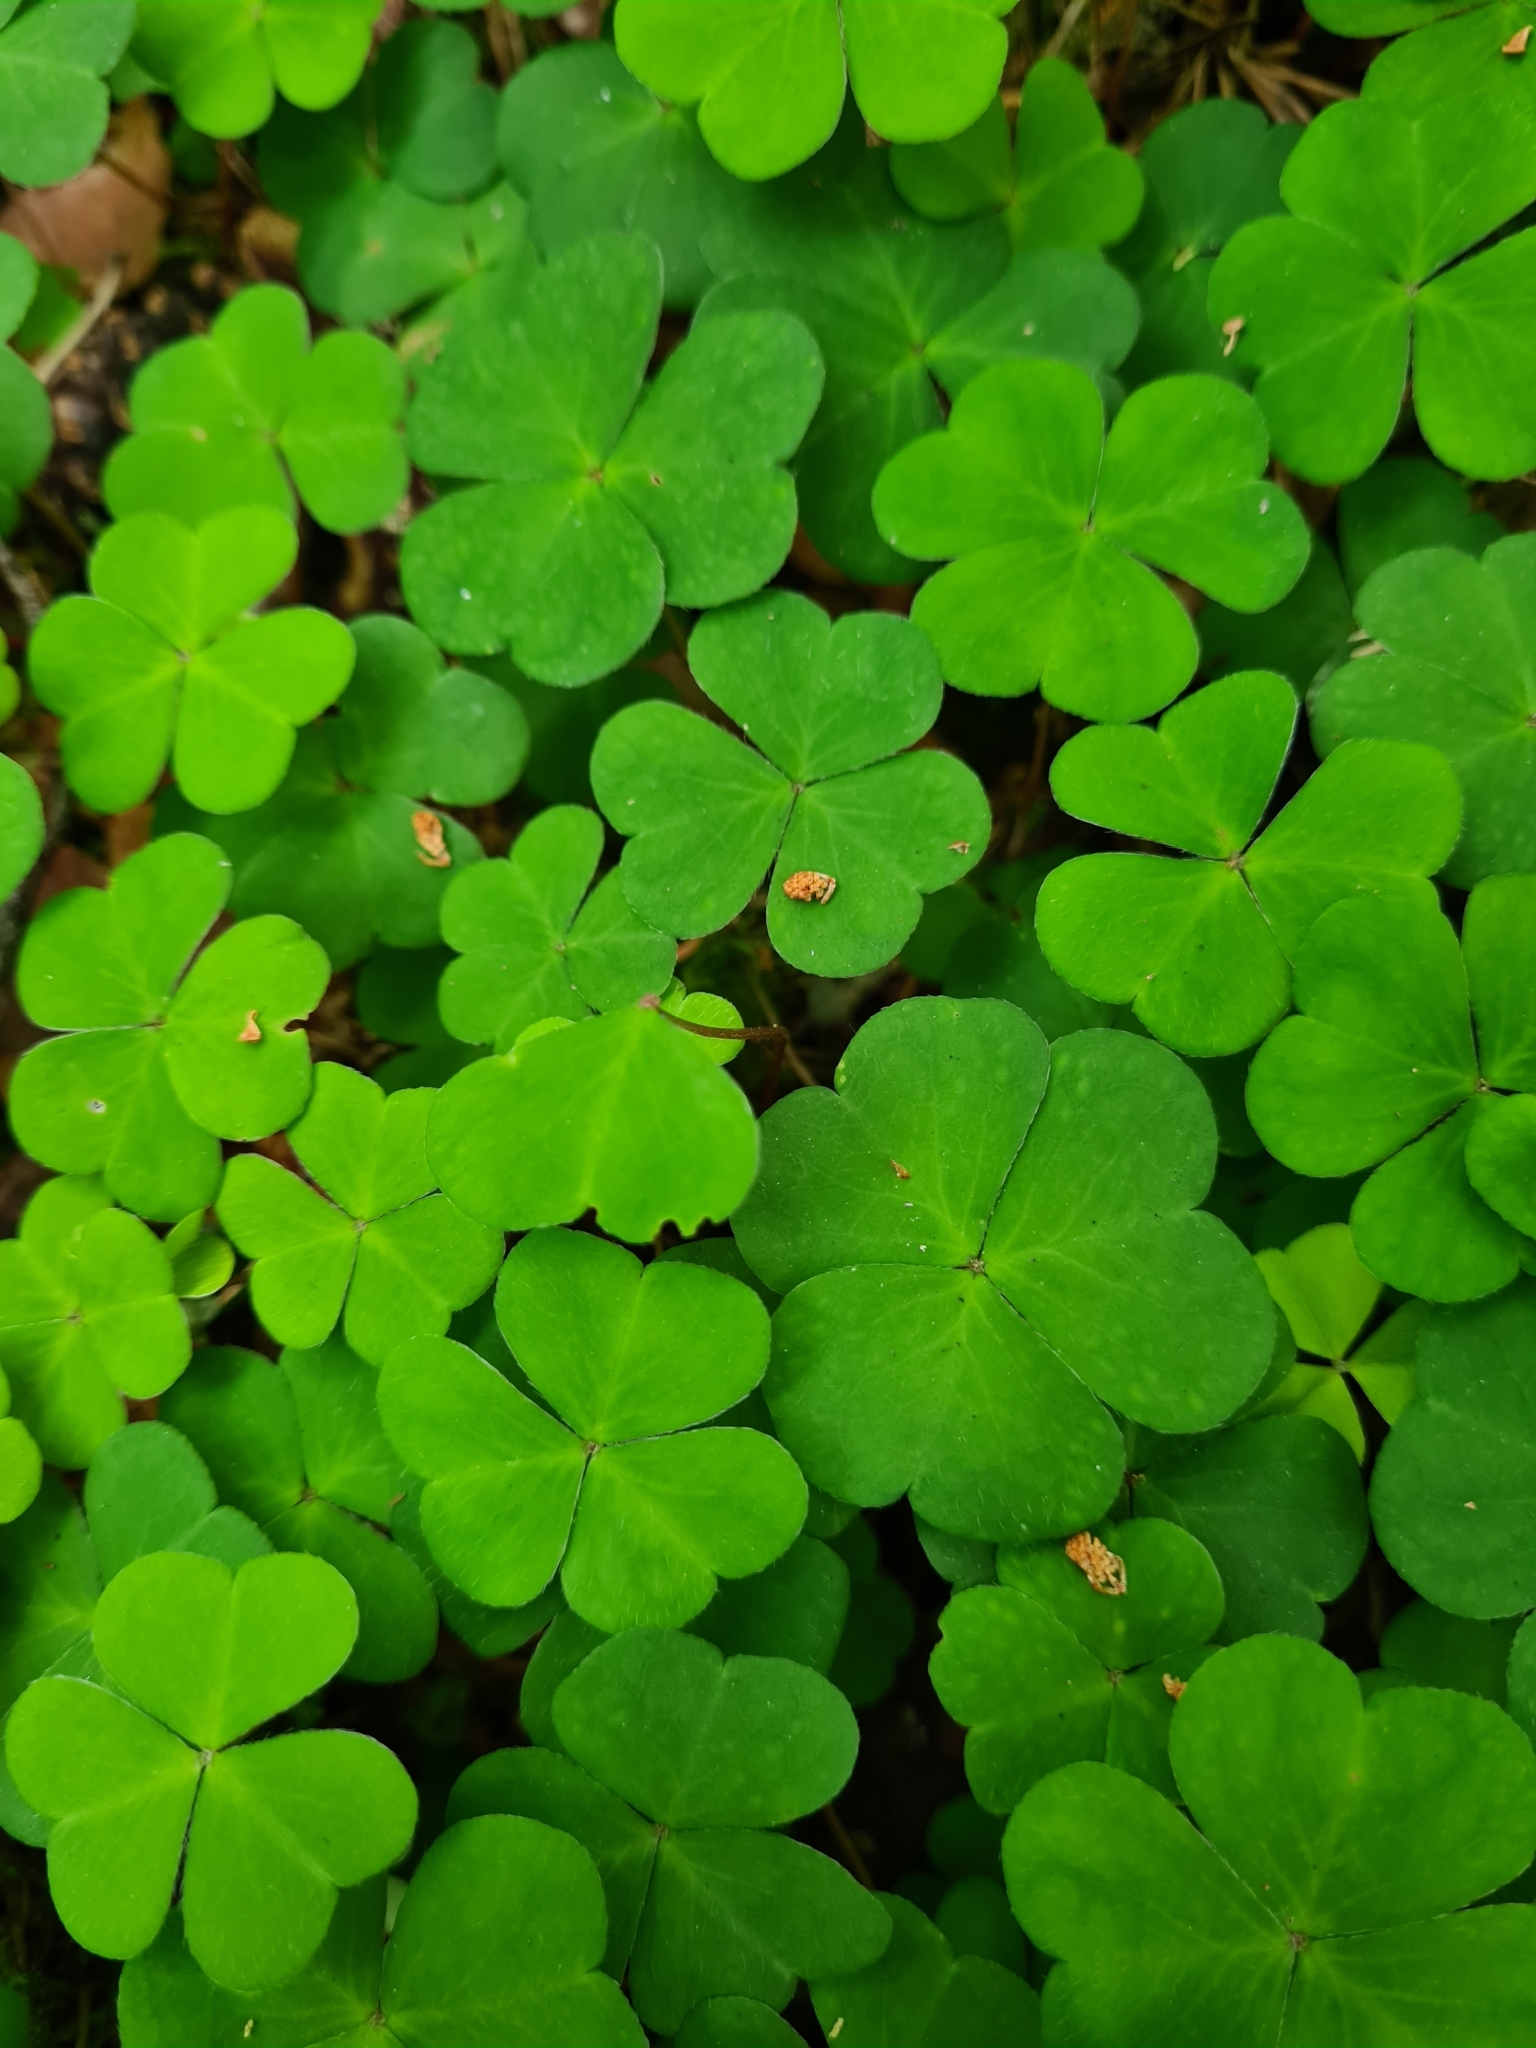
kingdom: Plantae
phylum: Tracheophyta
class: Magnoliopsida
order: Oxalidales
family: Oxalidaceae
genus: Oxalis
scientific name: Oxalis acetosella
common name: Wood-sorrel
